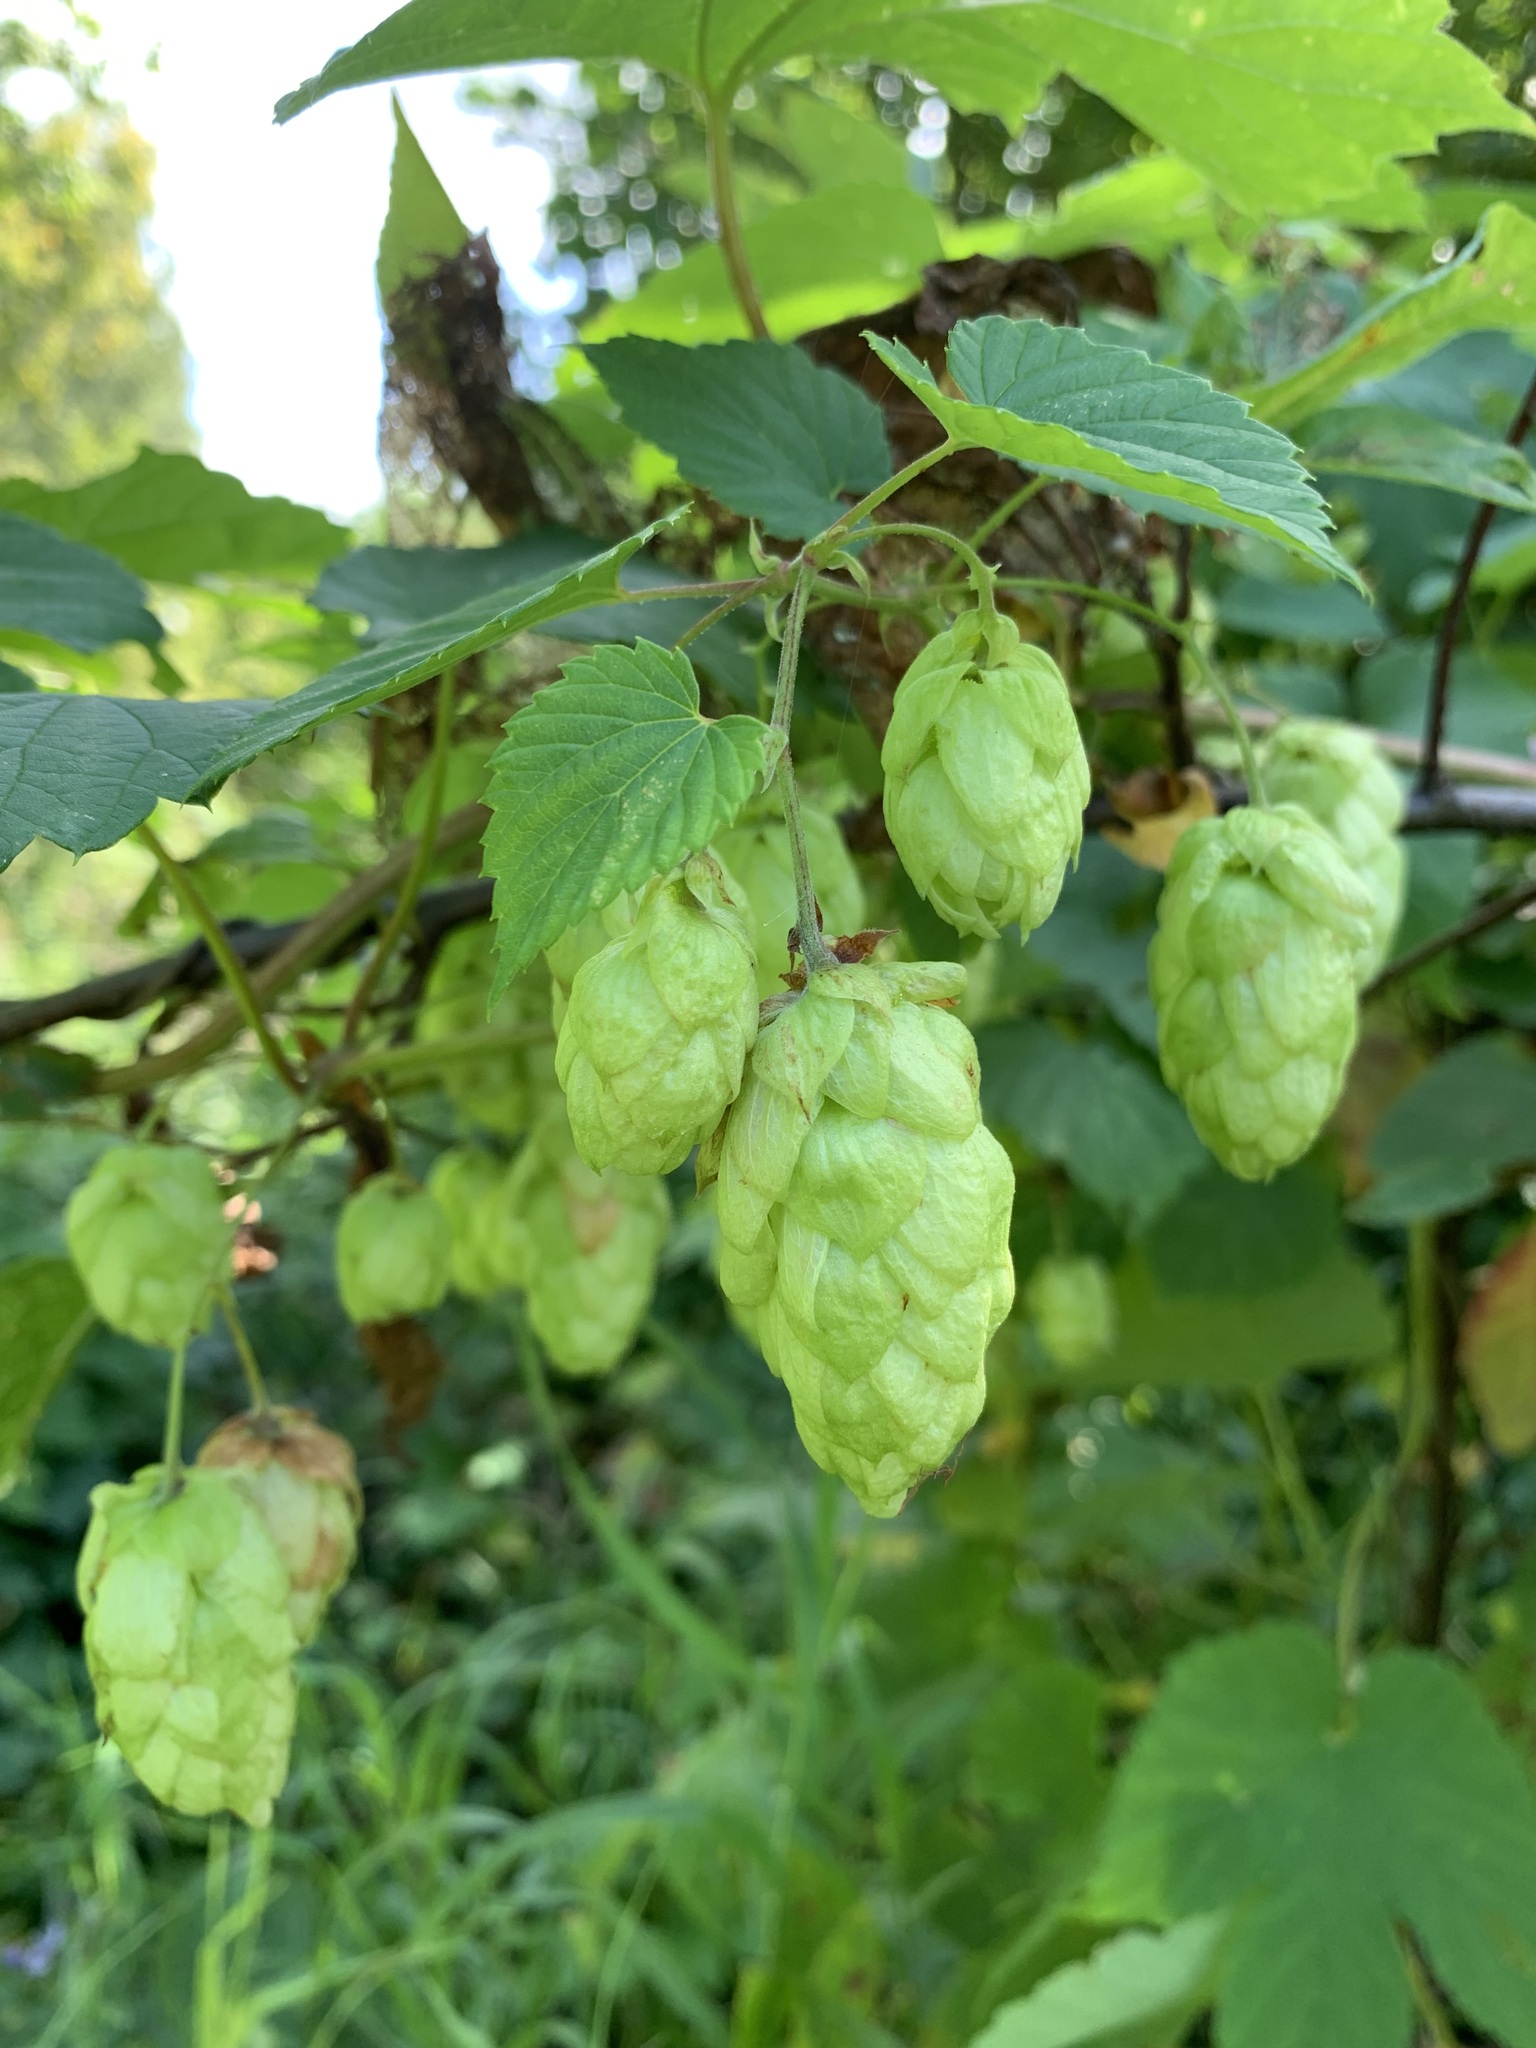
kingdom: Plantae
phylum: Tracheophyta
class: Magnoliopsida
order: Rosales
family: Cannabaceae
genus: Humulus
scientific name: Humulus lupulus
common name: Hop
